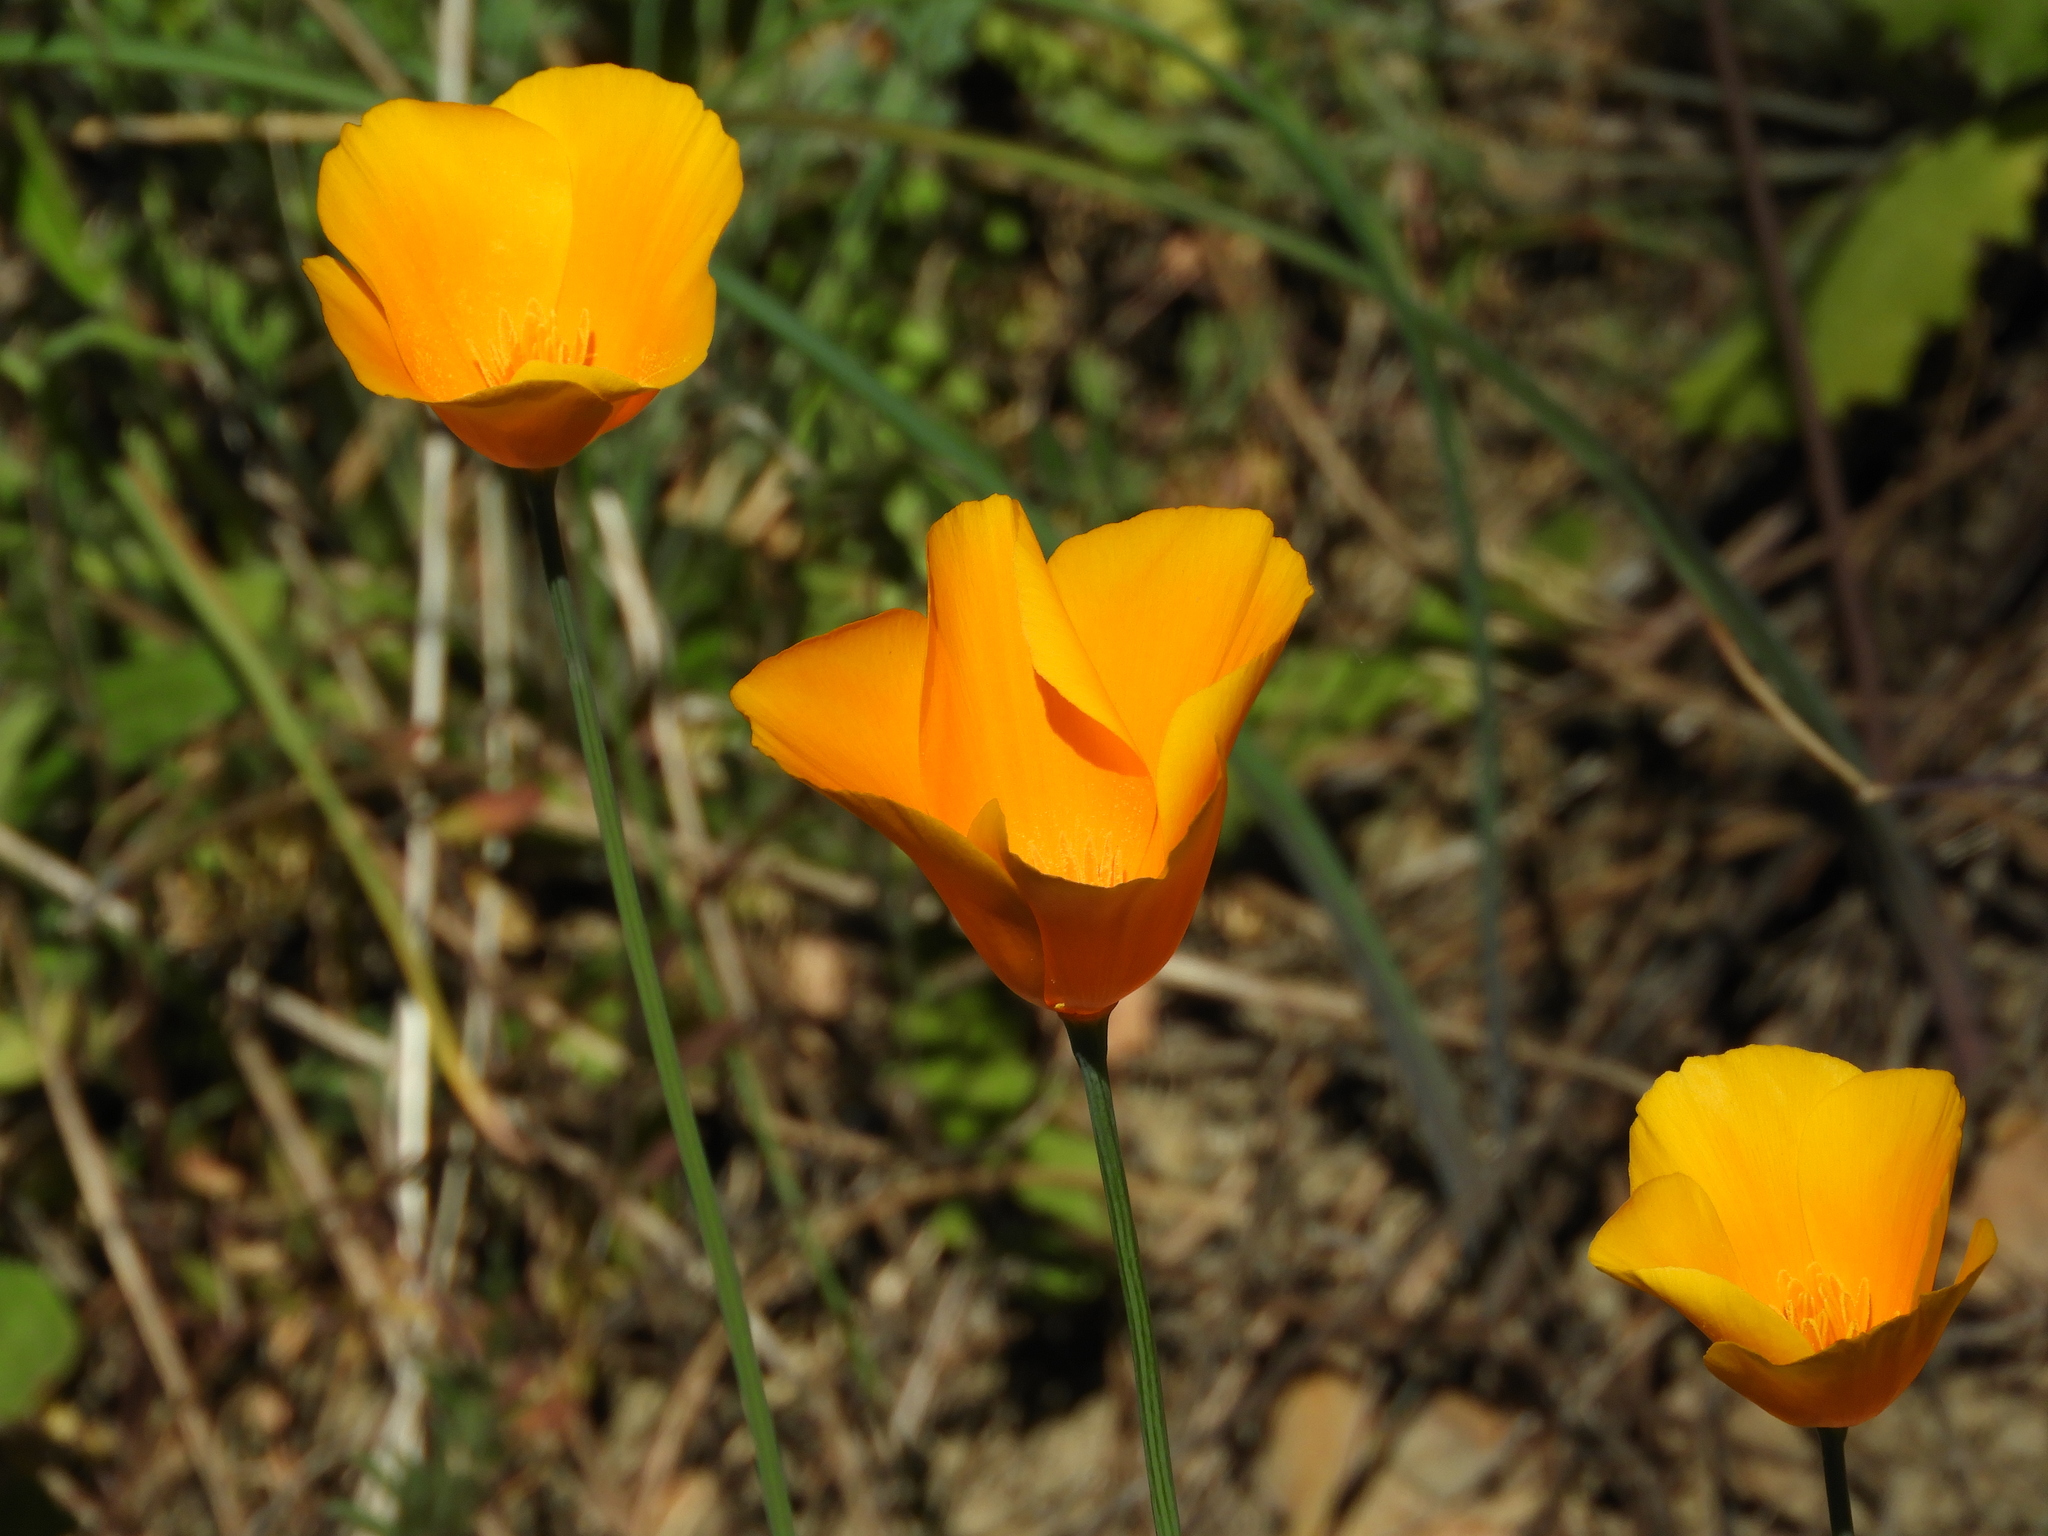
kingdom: Plantae
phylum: Tracheophyta
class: Magnoliopsida
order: Ranunculales
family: Papaveraceae
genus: Eschscholzia
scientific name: Eschscholzia caespitosa
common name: Tufted california-poppy
